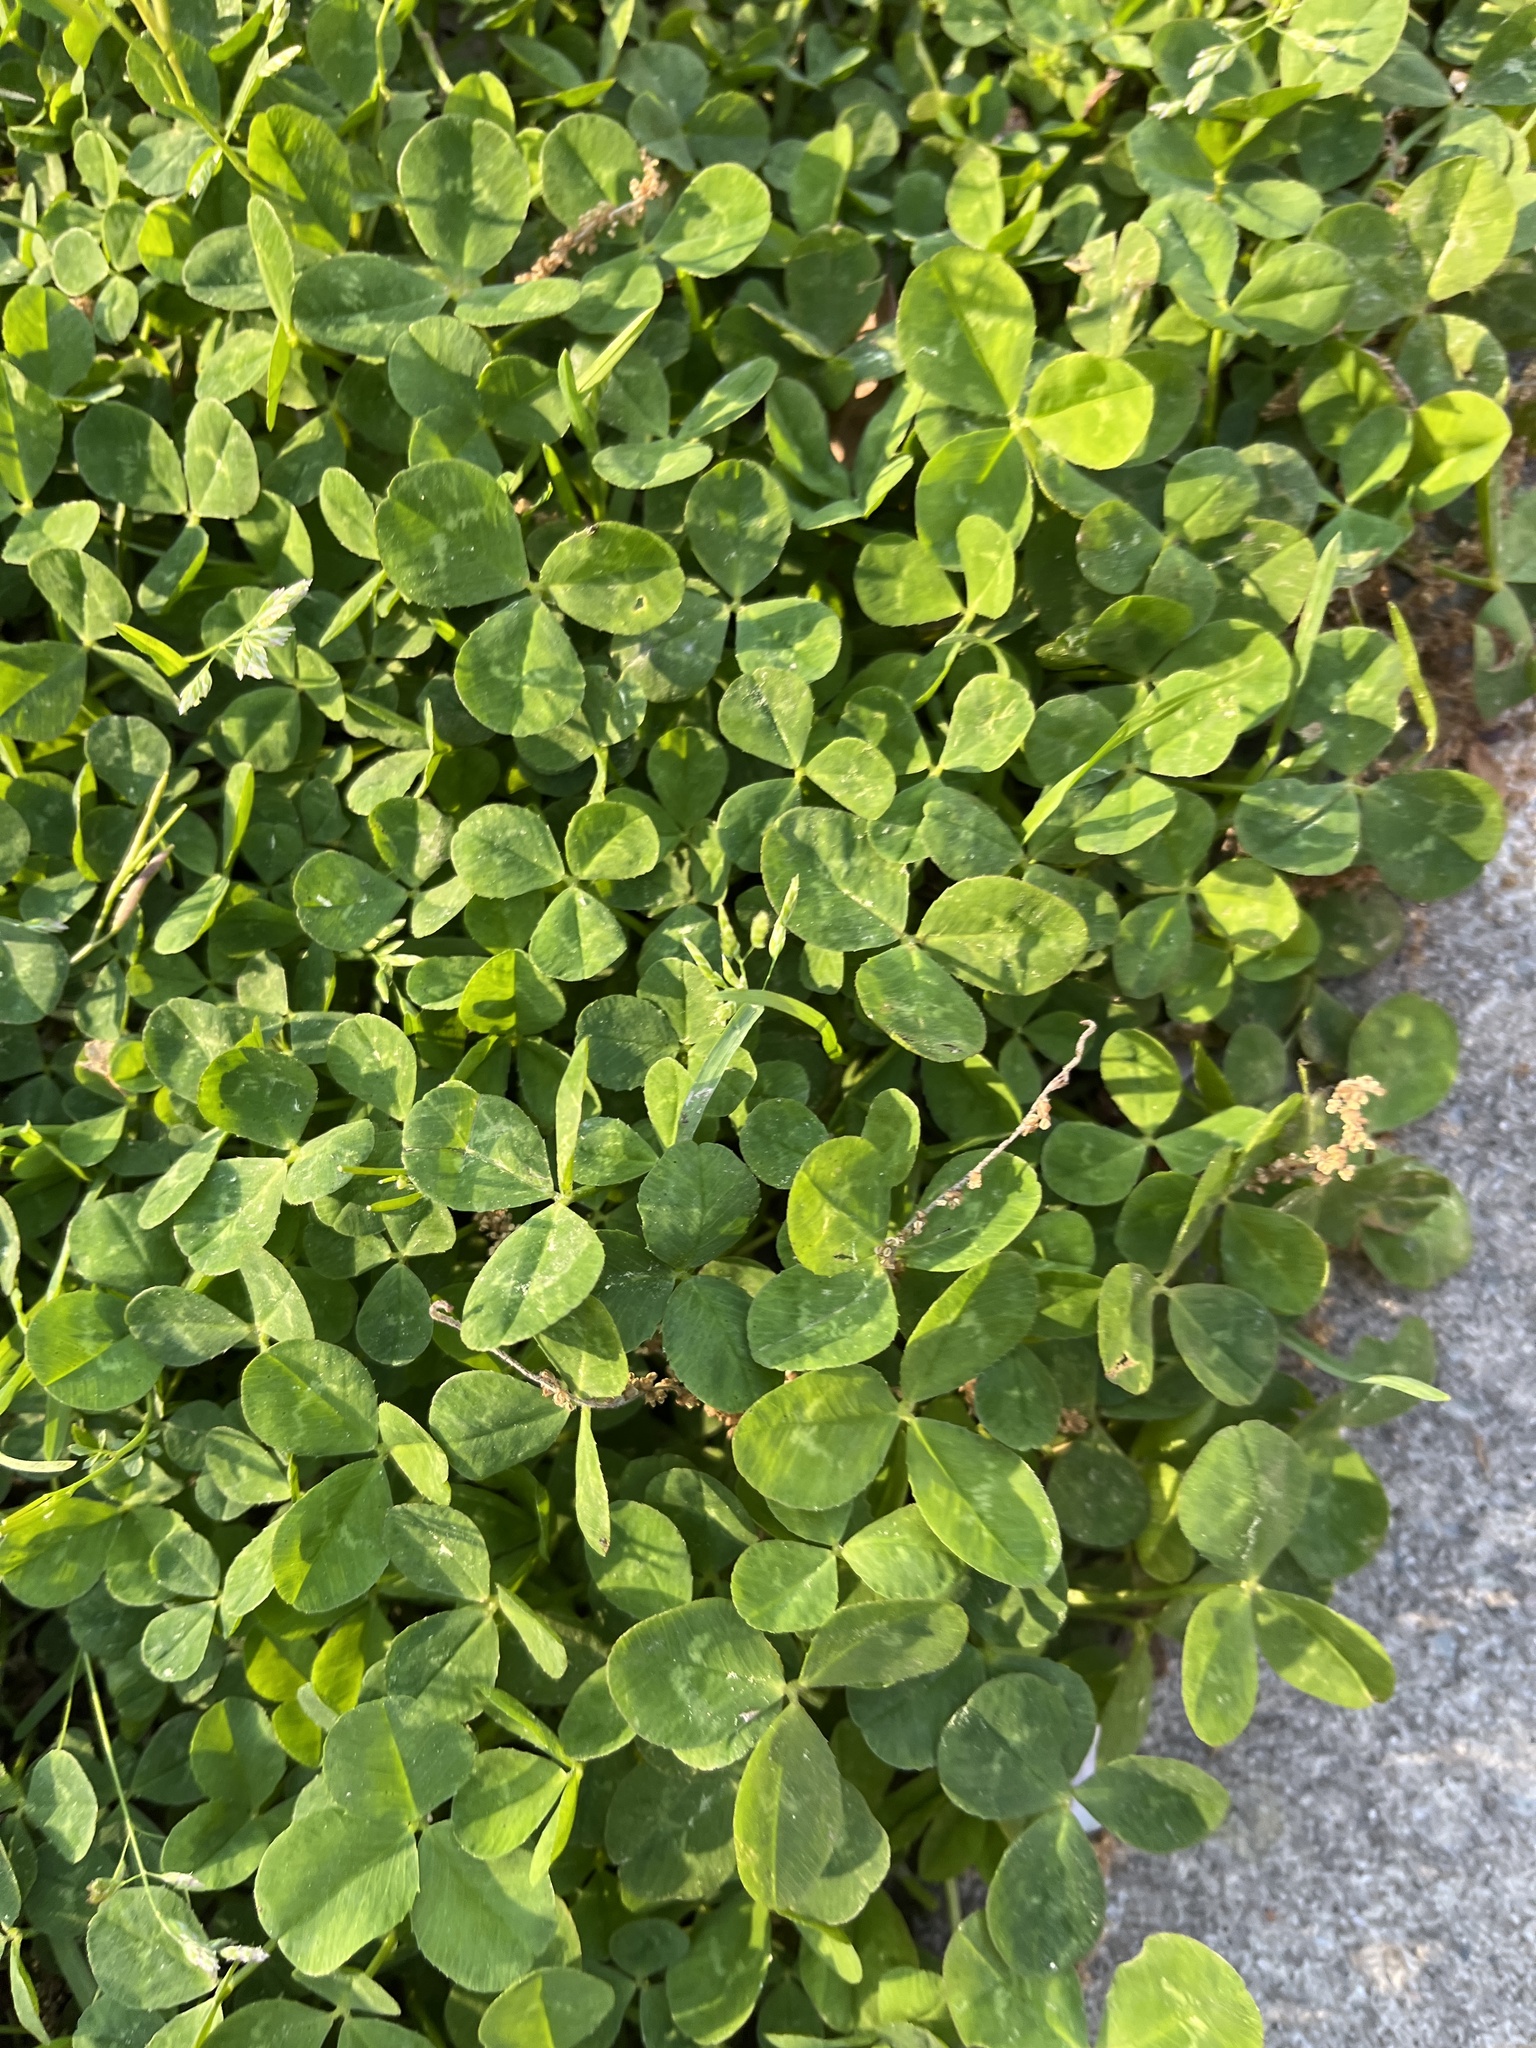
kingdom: Plantae
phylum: Tracheophyta
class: Magnoliopsida
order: Fabales
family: Fabaceae
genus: Trifolium
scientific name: Trifolium repens
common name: White clover
